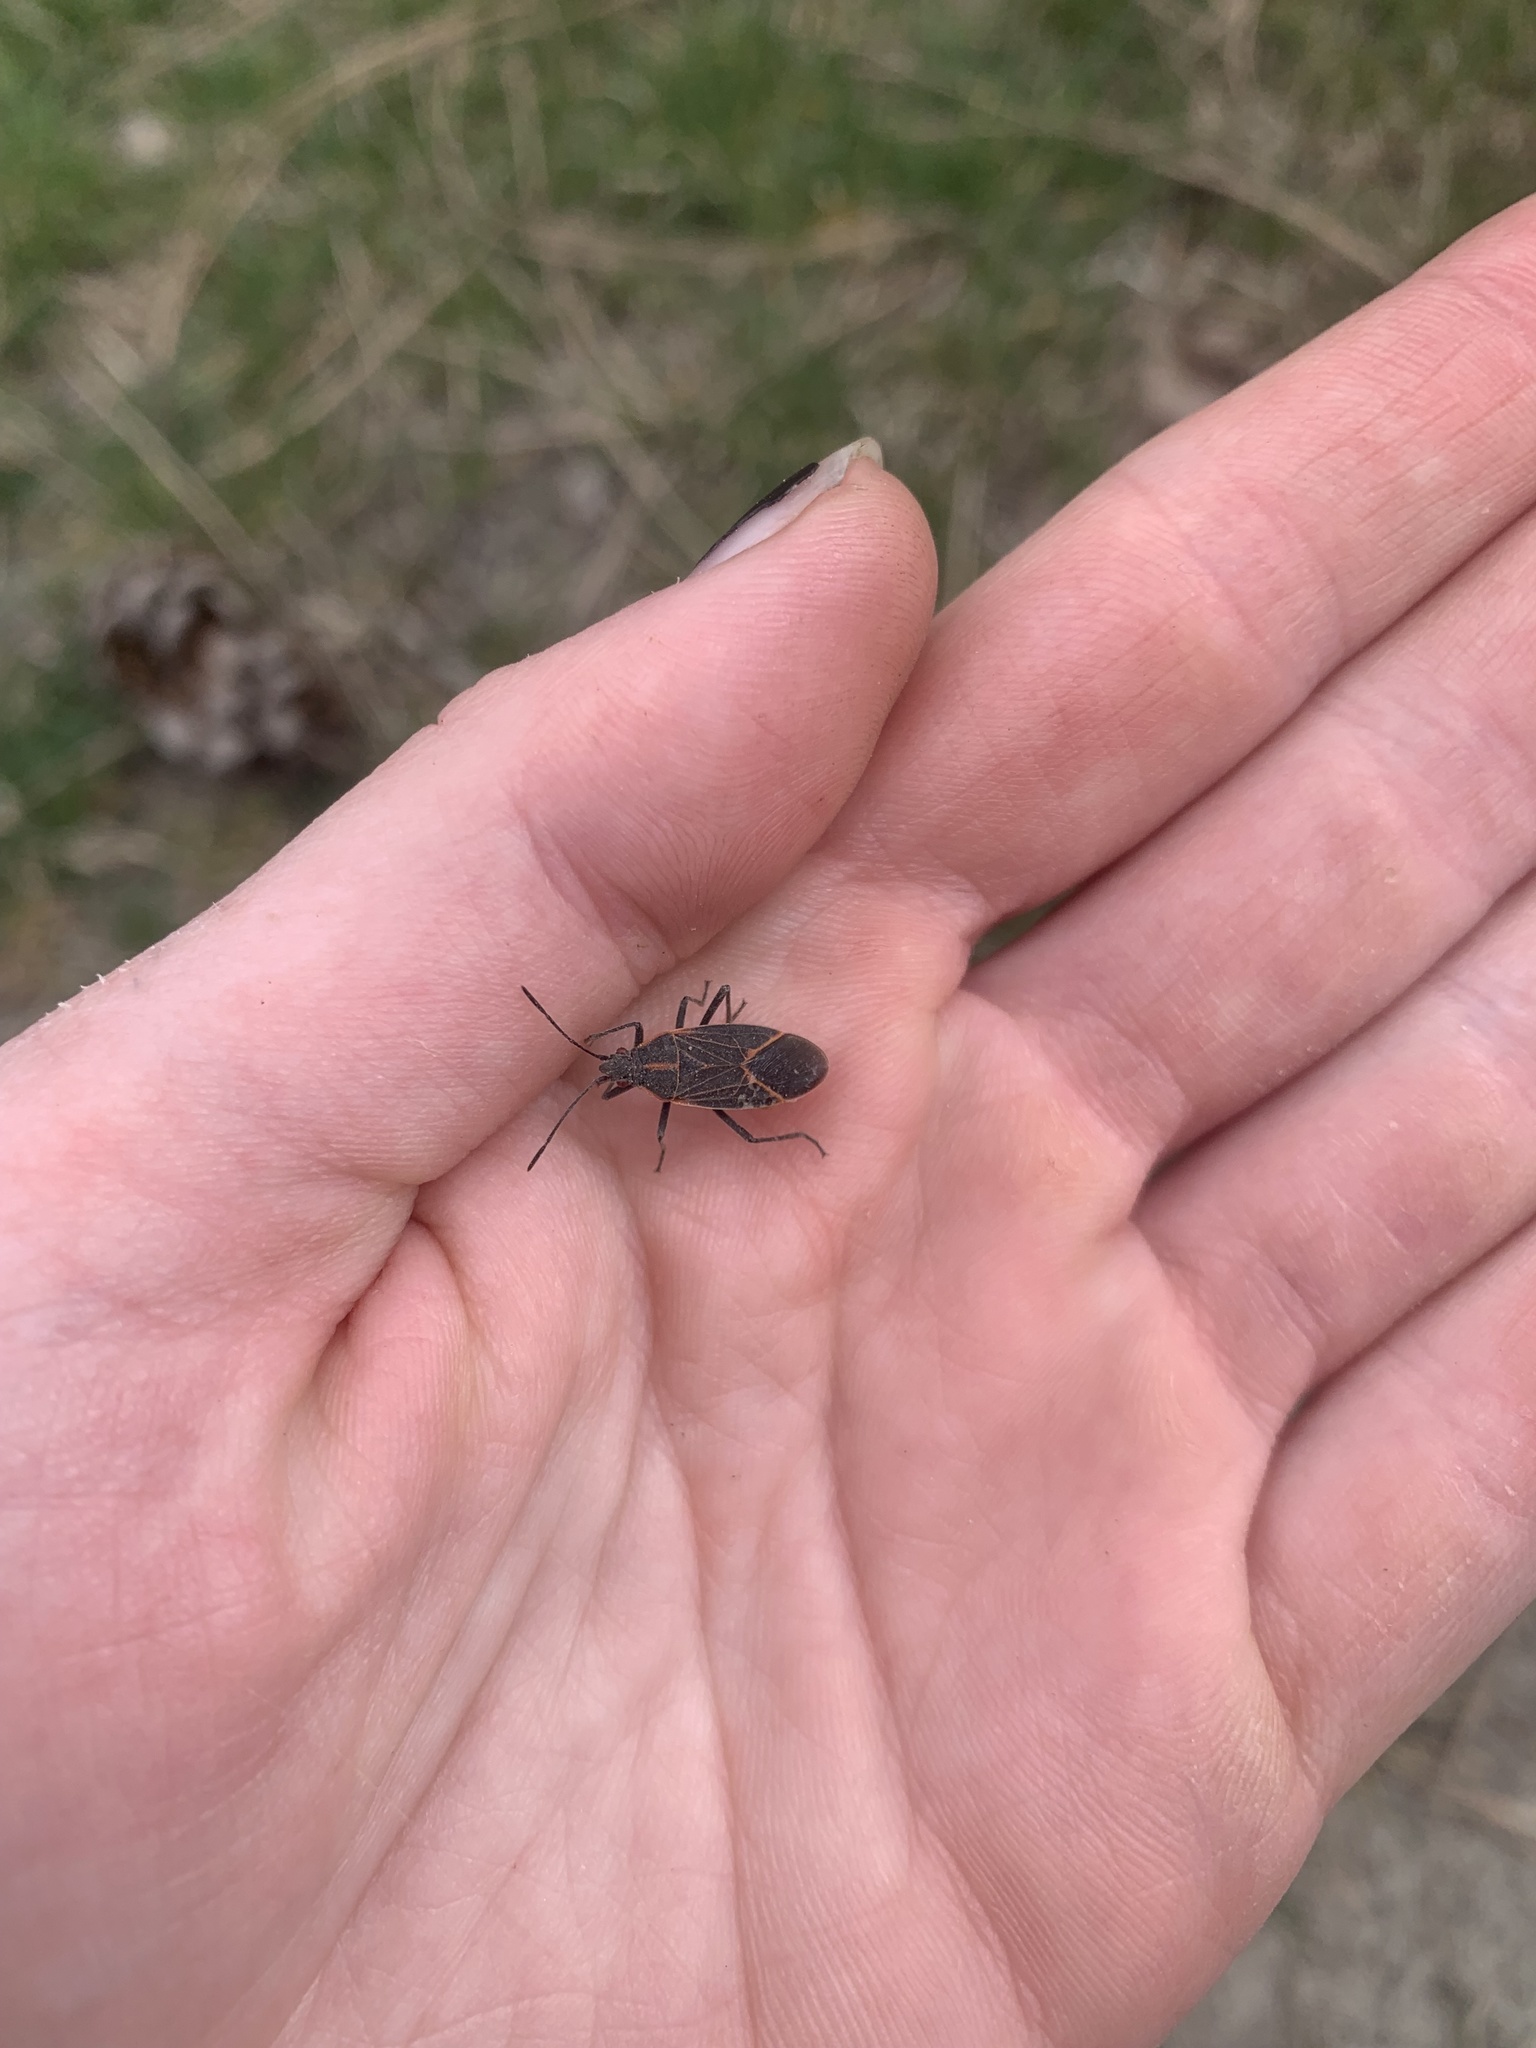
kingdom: Animalia
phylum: Arthropoda
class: Insecta
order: Hemiptera
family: Rhopalidae
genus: Boisea
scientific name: Boisea rubrolineata
